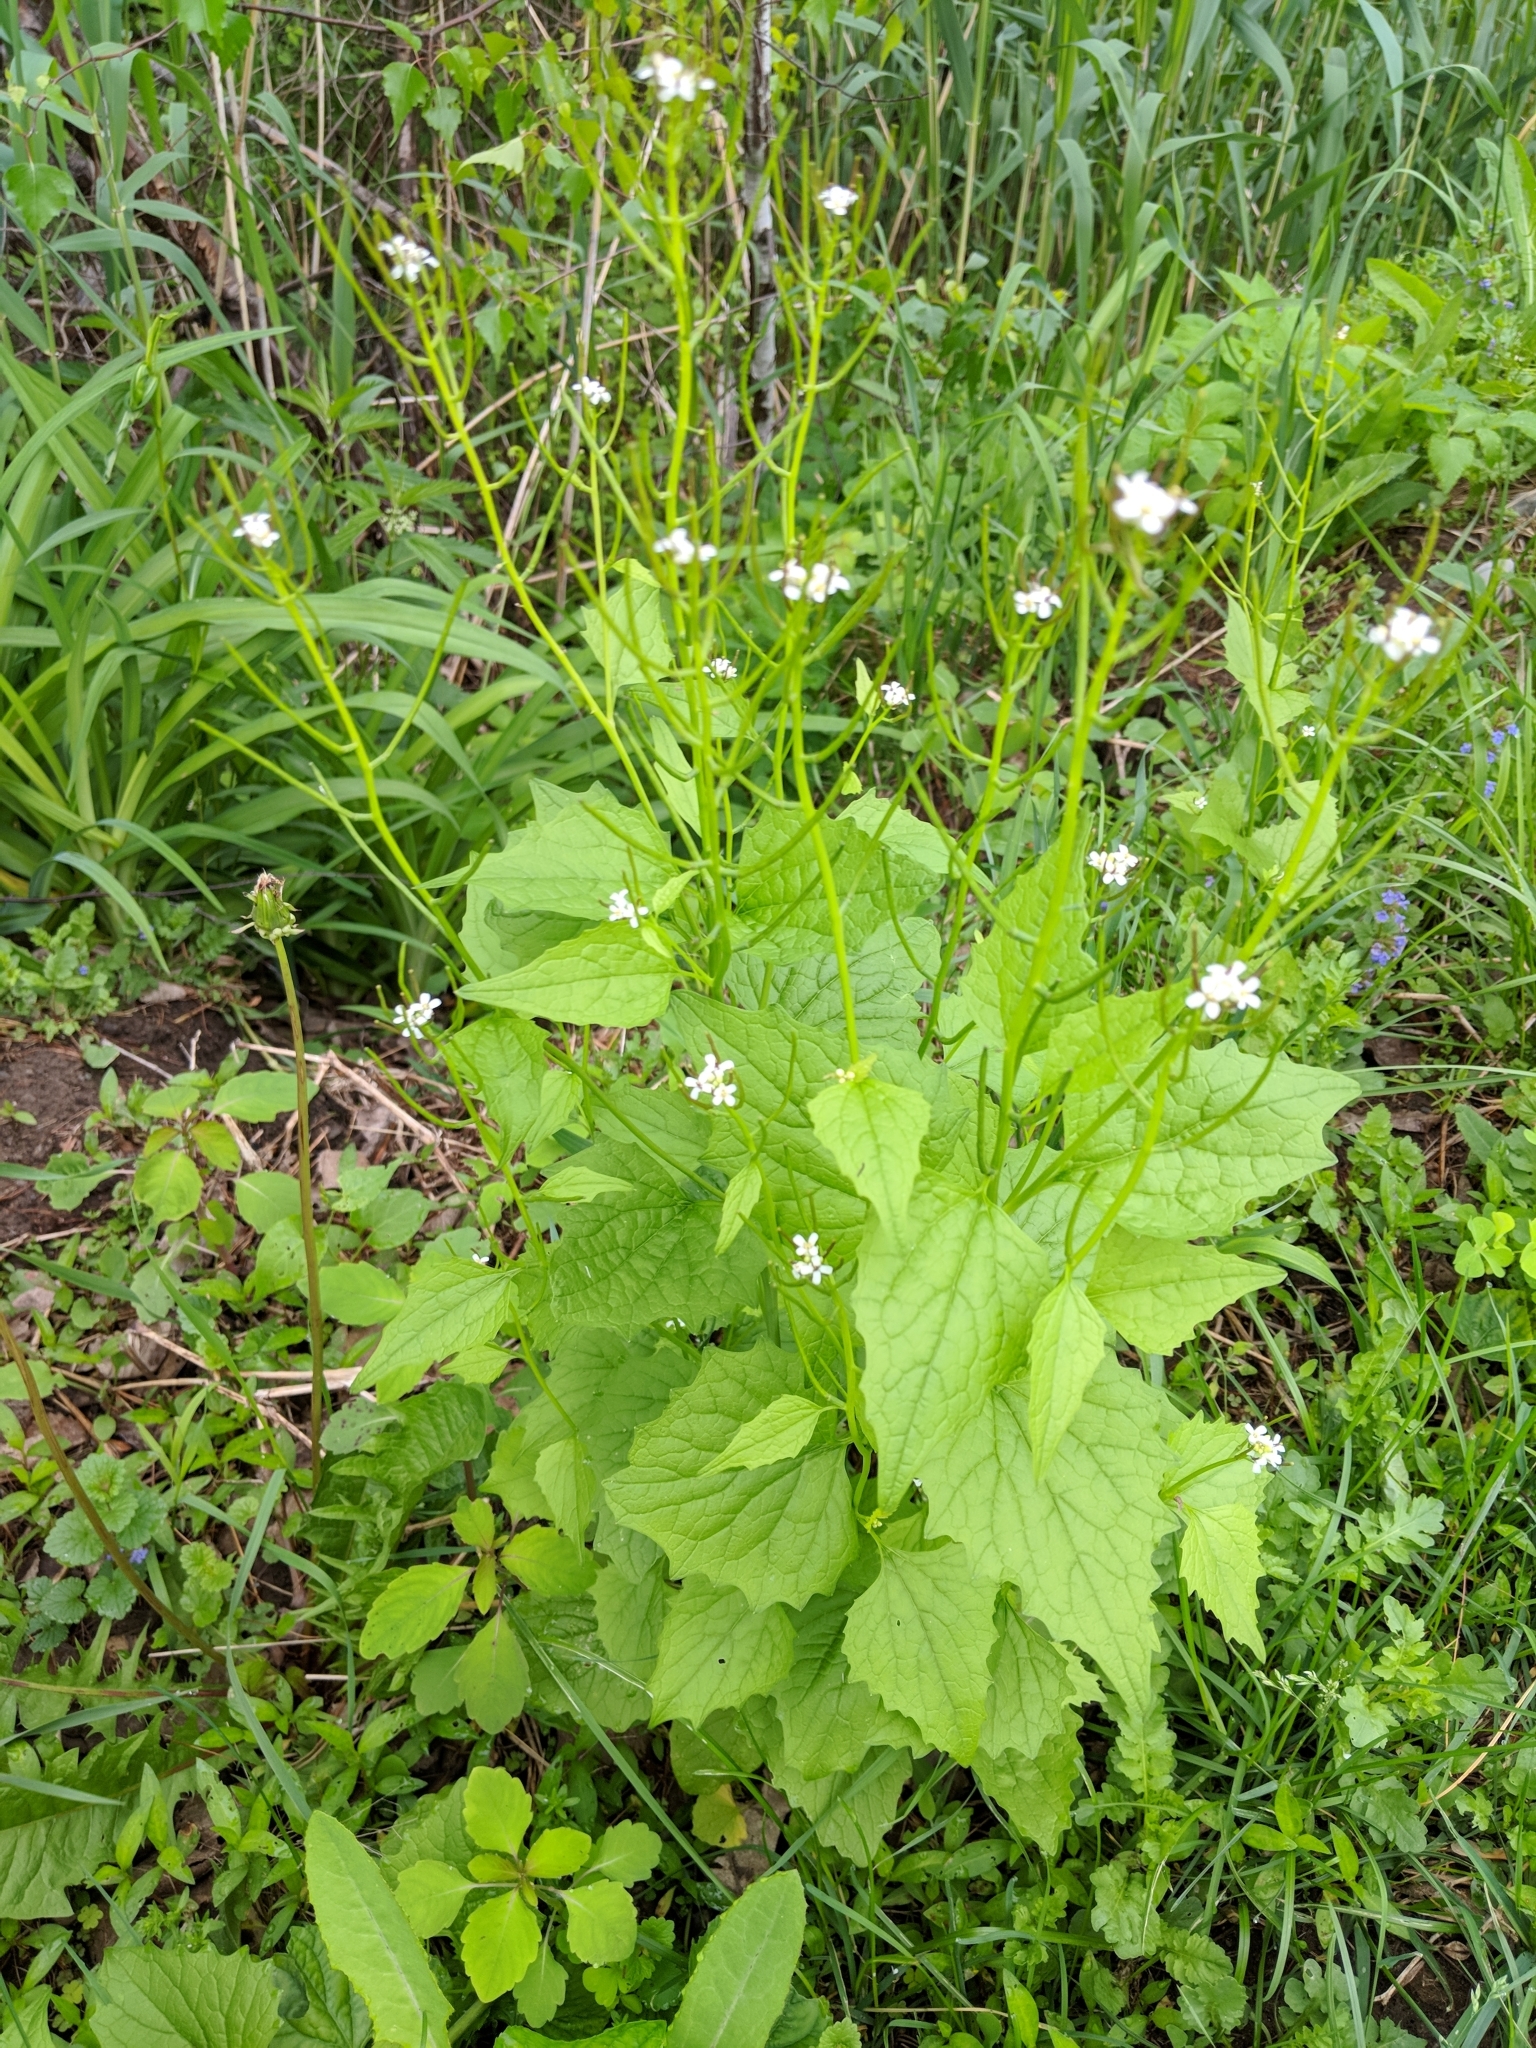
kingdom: Plantae
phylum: Tracheophyta
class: Magnoliopsida
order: Brassicales
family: Brassicaceae
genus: Alliaria
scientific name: Alliaria petiolata
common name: Garlic mustard
